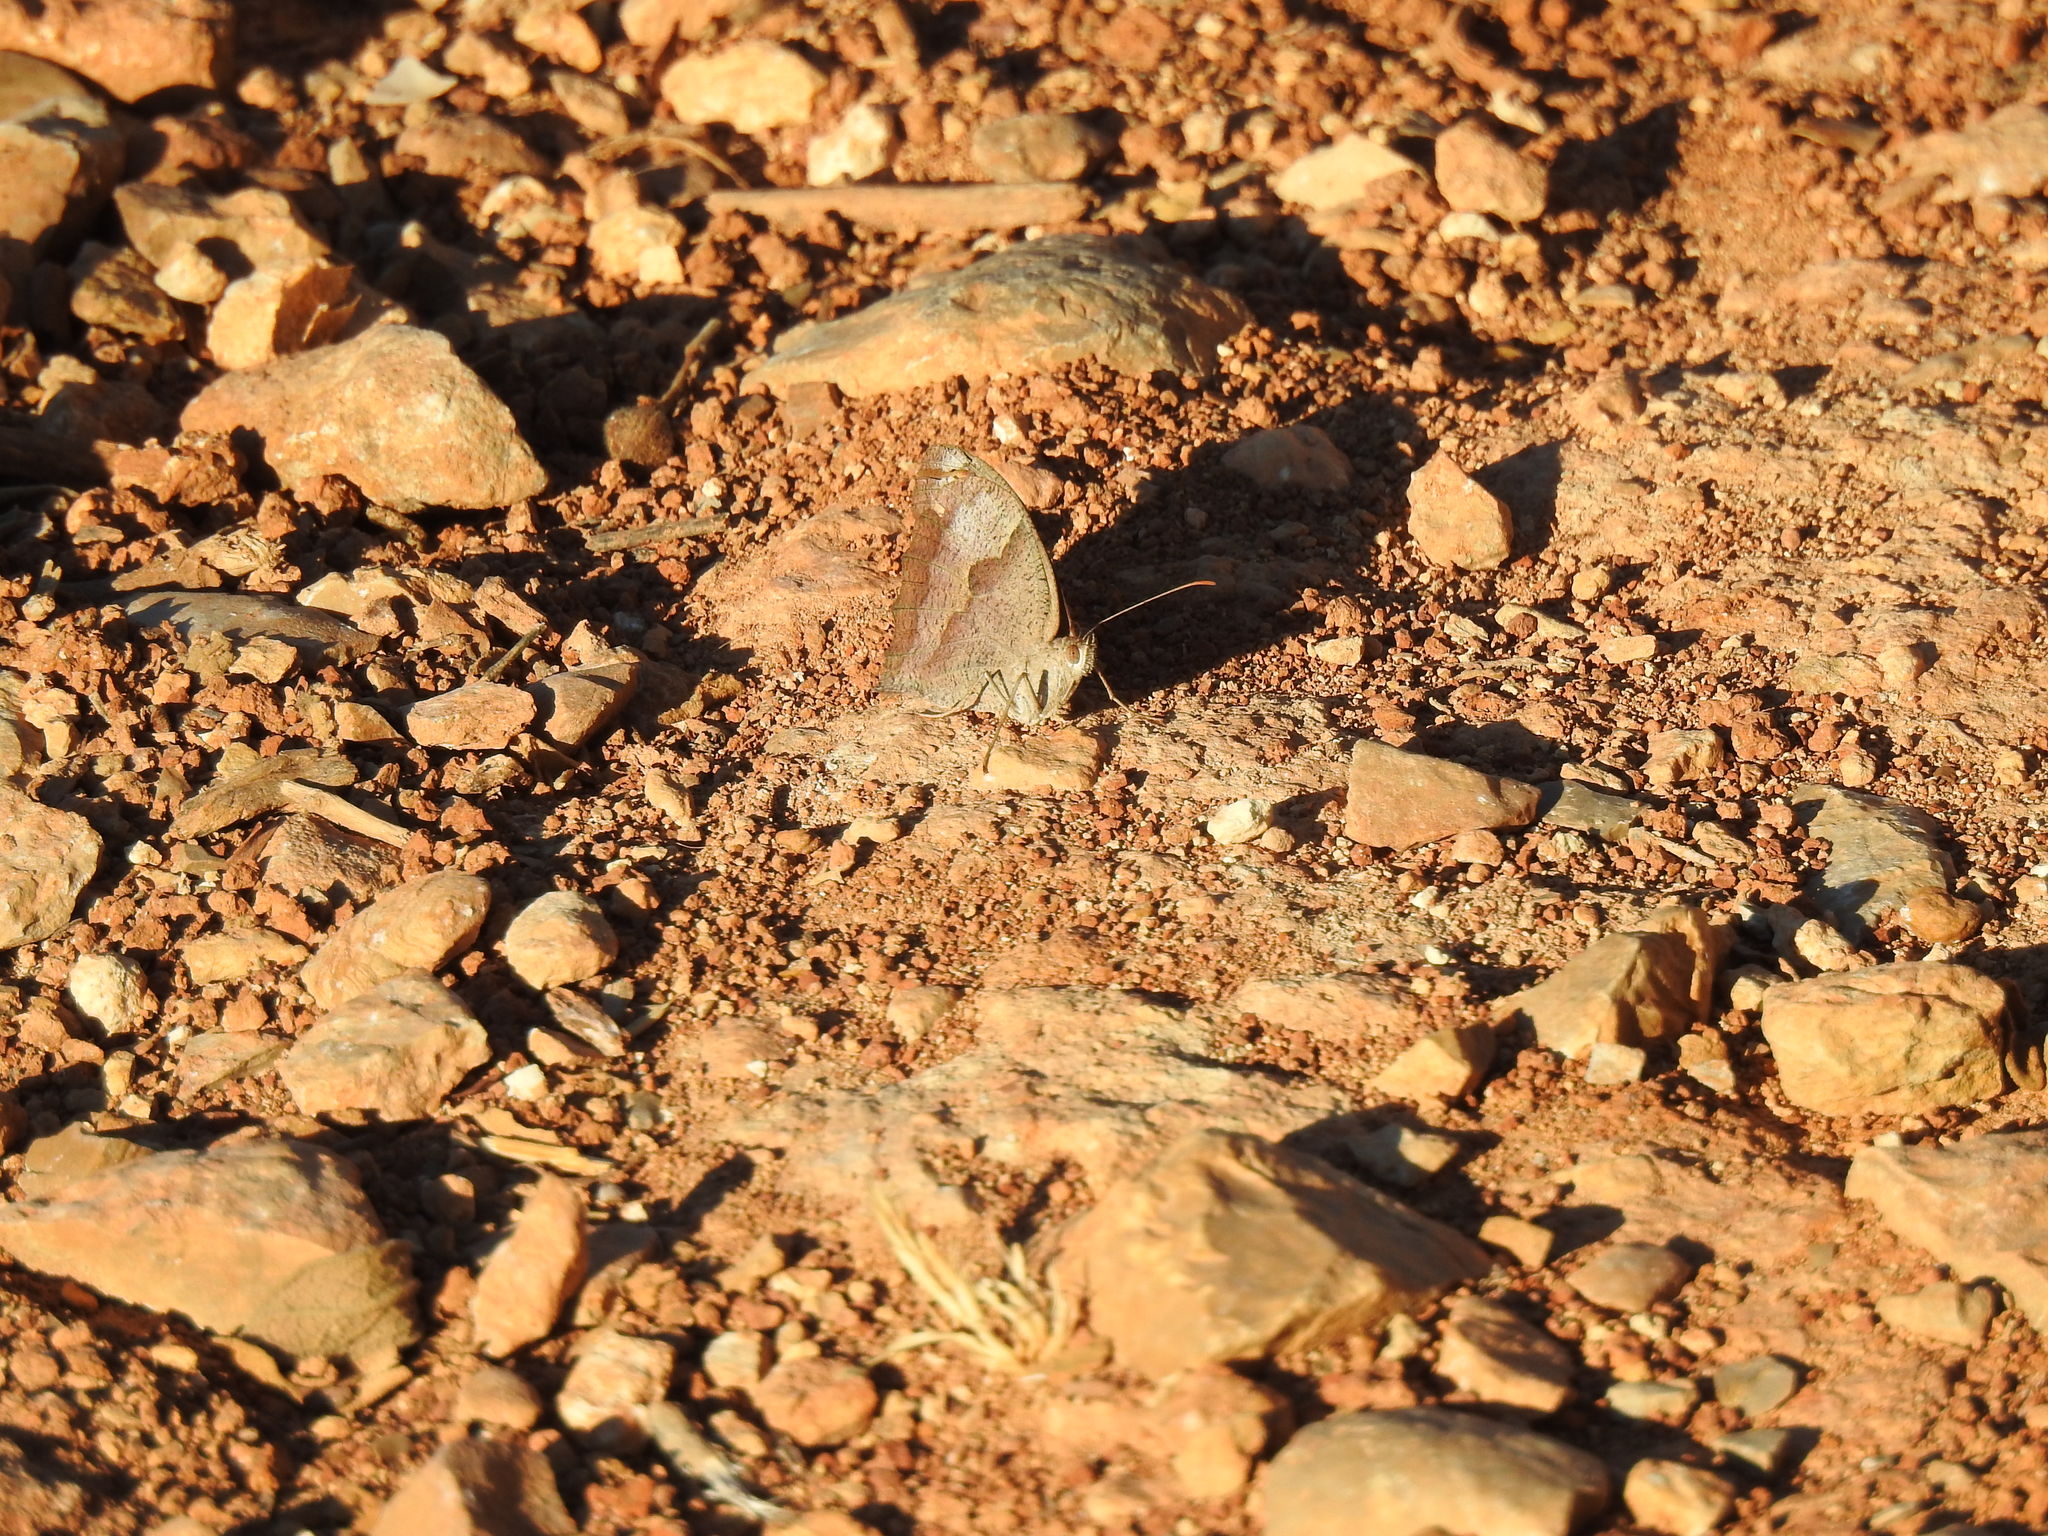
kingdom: Animalia
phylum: Arthropoda
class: Insecta
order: Lepidoptera
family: Nymphalidae
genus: Maniola
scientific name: Maniola jurtina
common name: Meadow brown
